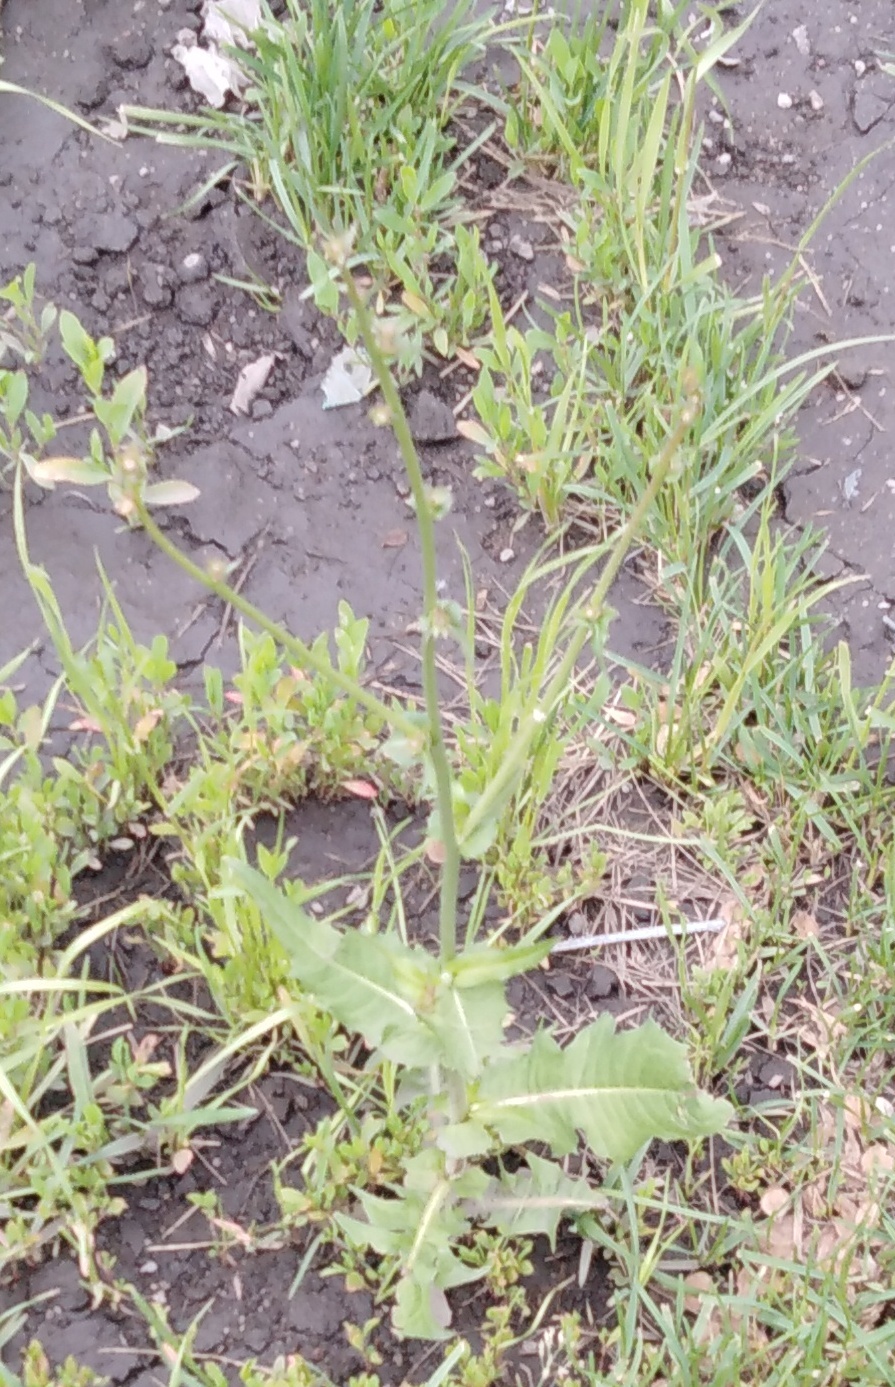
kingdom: Plantae
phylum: Tracheophyta
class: Magnoliopsida
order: Asterales
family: Asteraceae
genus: Cichorium
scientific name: Cichorium intybus
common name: Chicory
